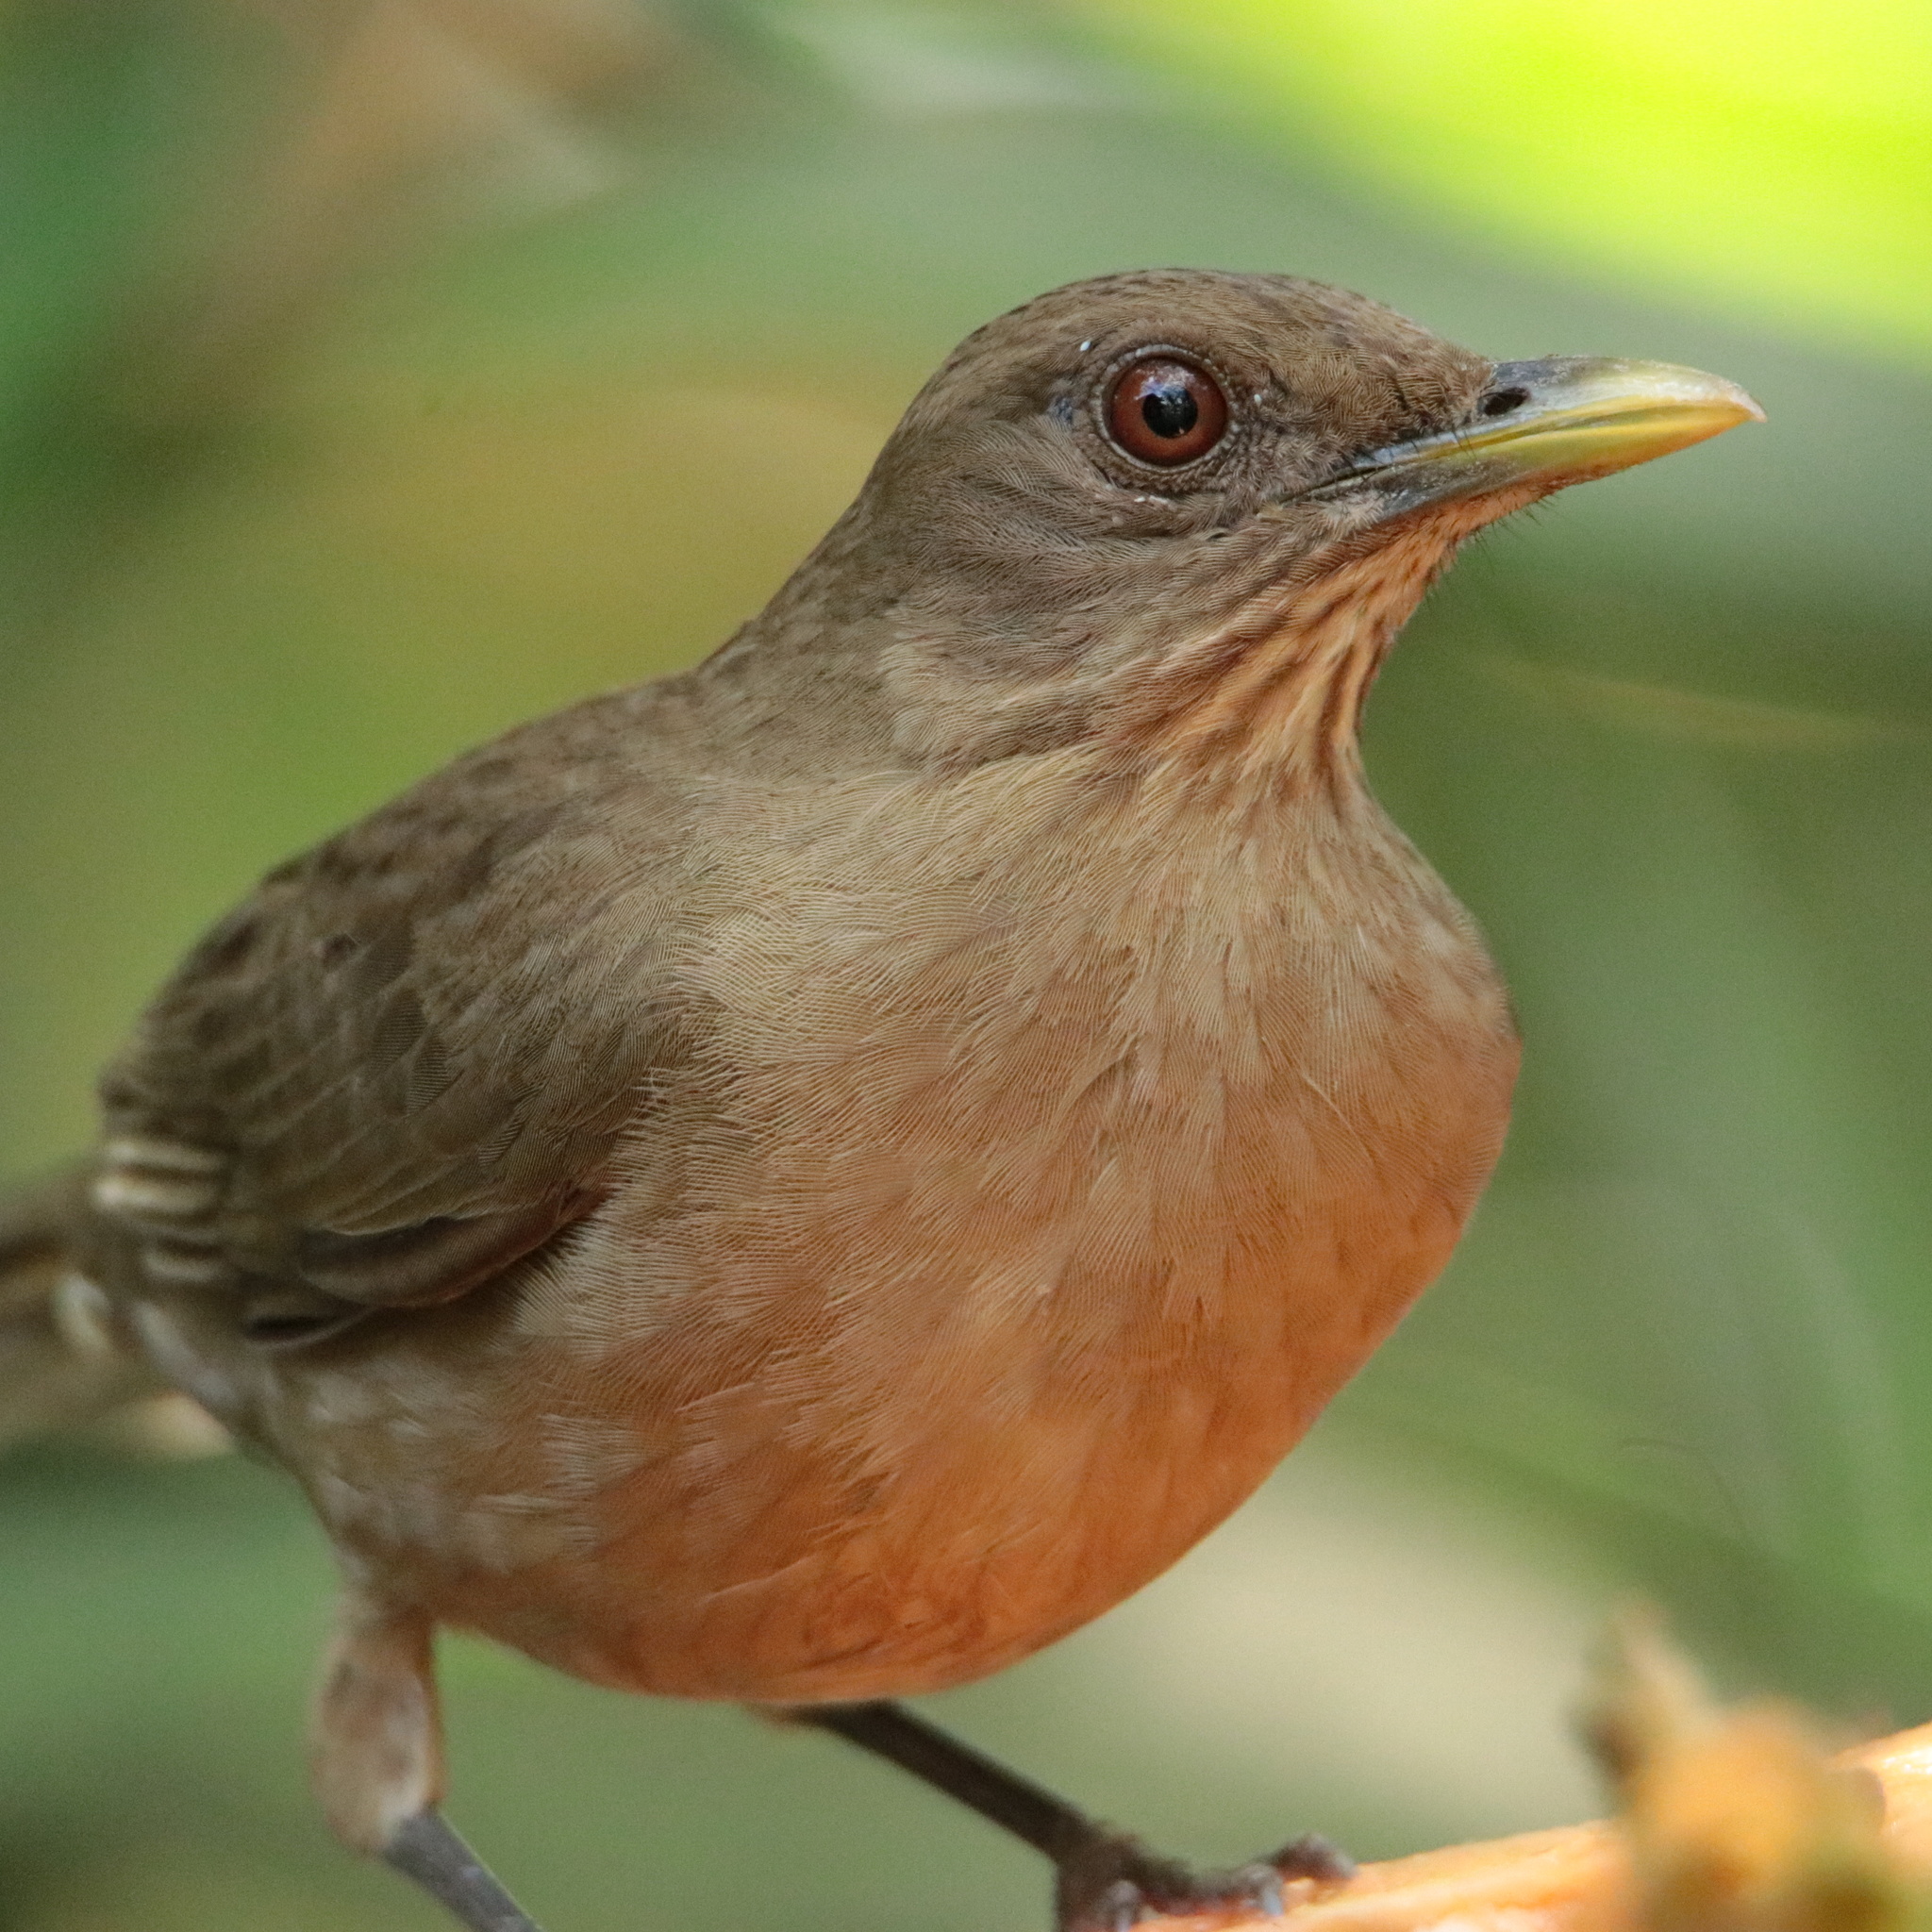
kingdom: Animalia
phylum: Chordata
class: Aves
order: Passeriformes
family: Turdidae
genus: Turdus
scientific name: Turdus grayi
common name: Clay-colored thrush
